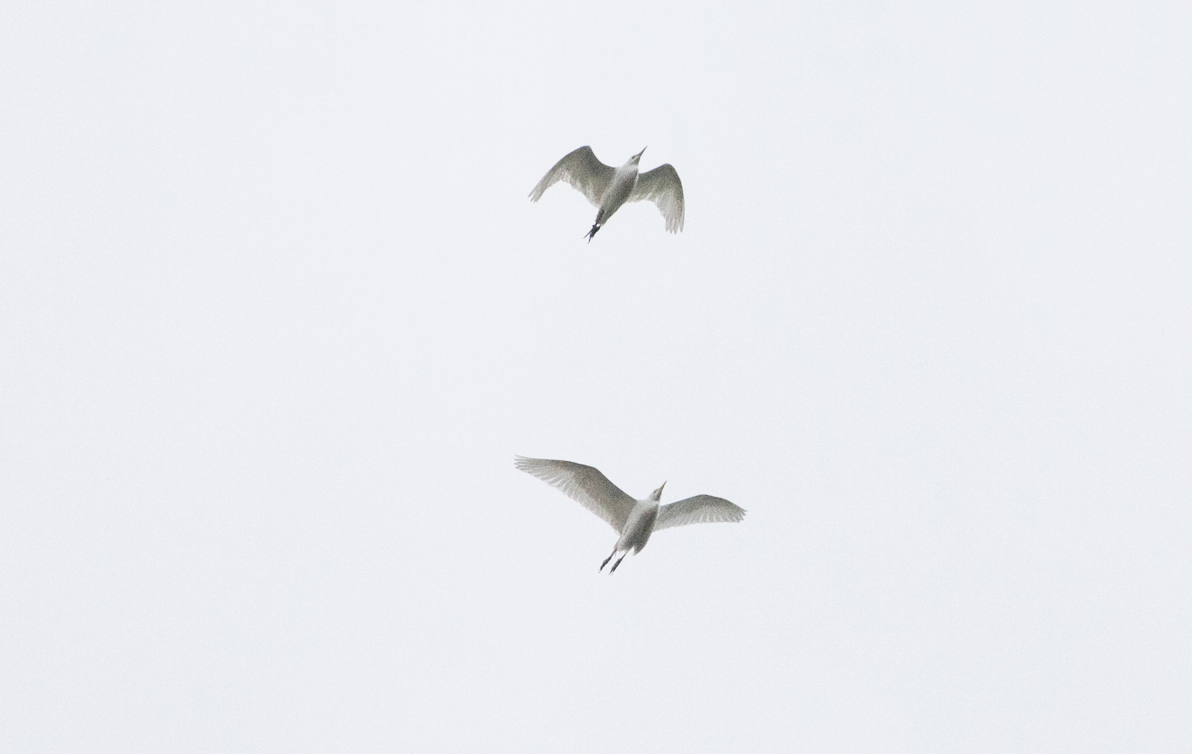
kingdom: Animalia
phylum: Chordata
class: Aves
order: Pelecaniformes
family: Ardeidae
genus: Bubulcus
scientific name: Bubulcus ibis
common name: Cattle egret
